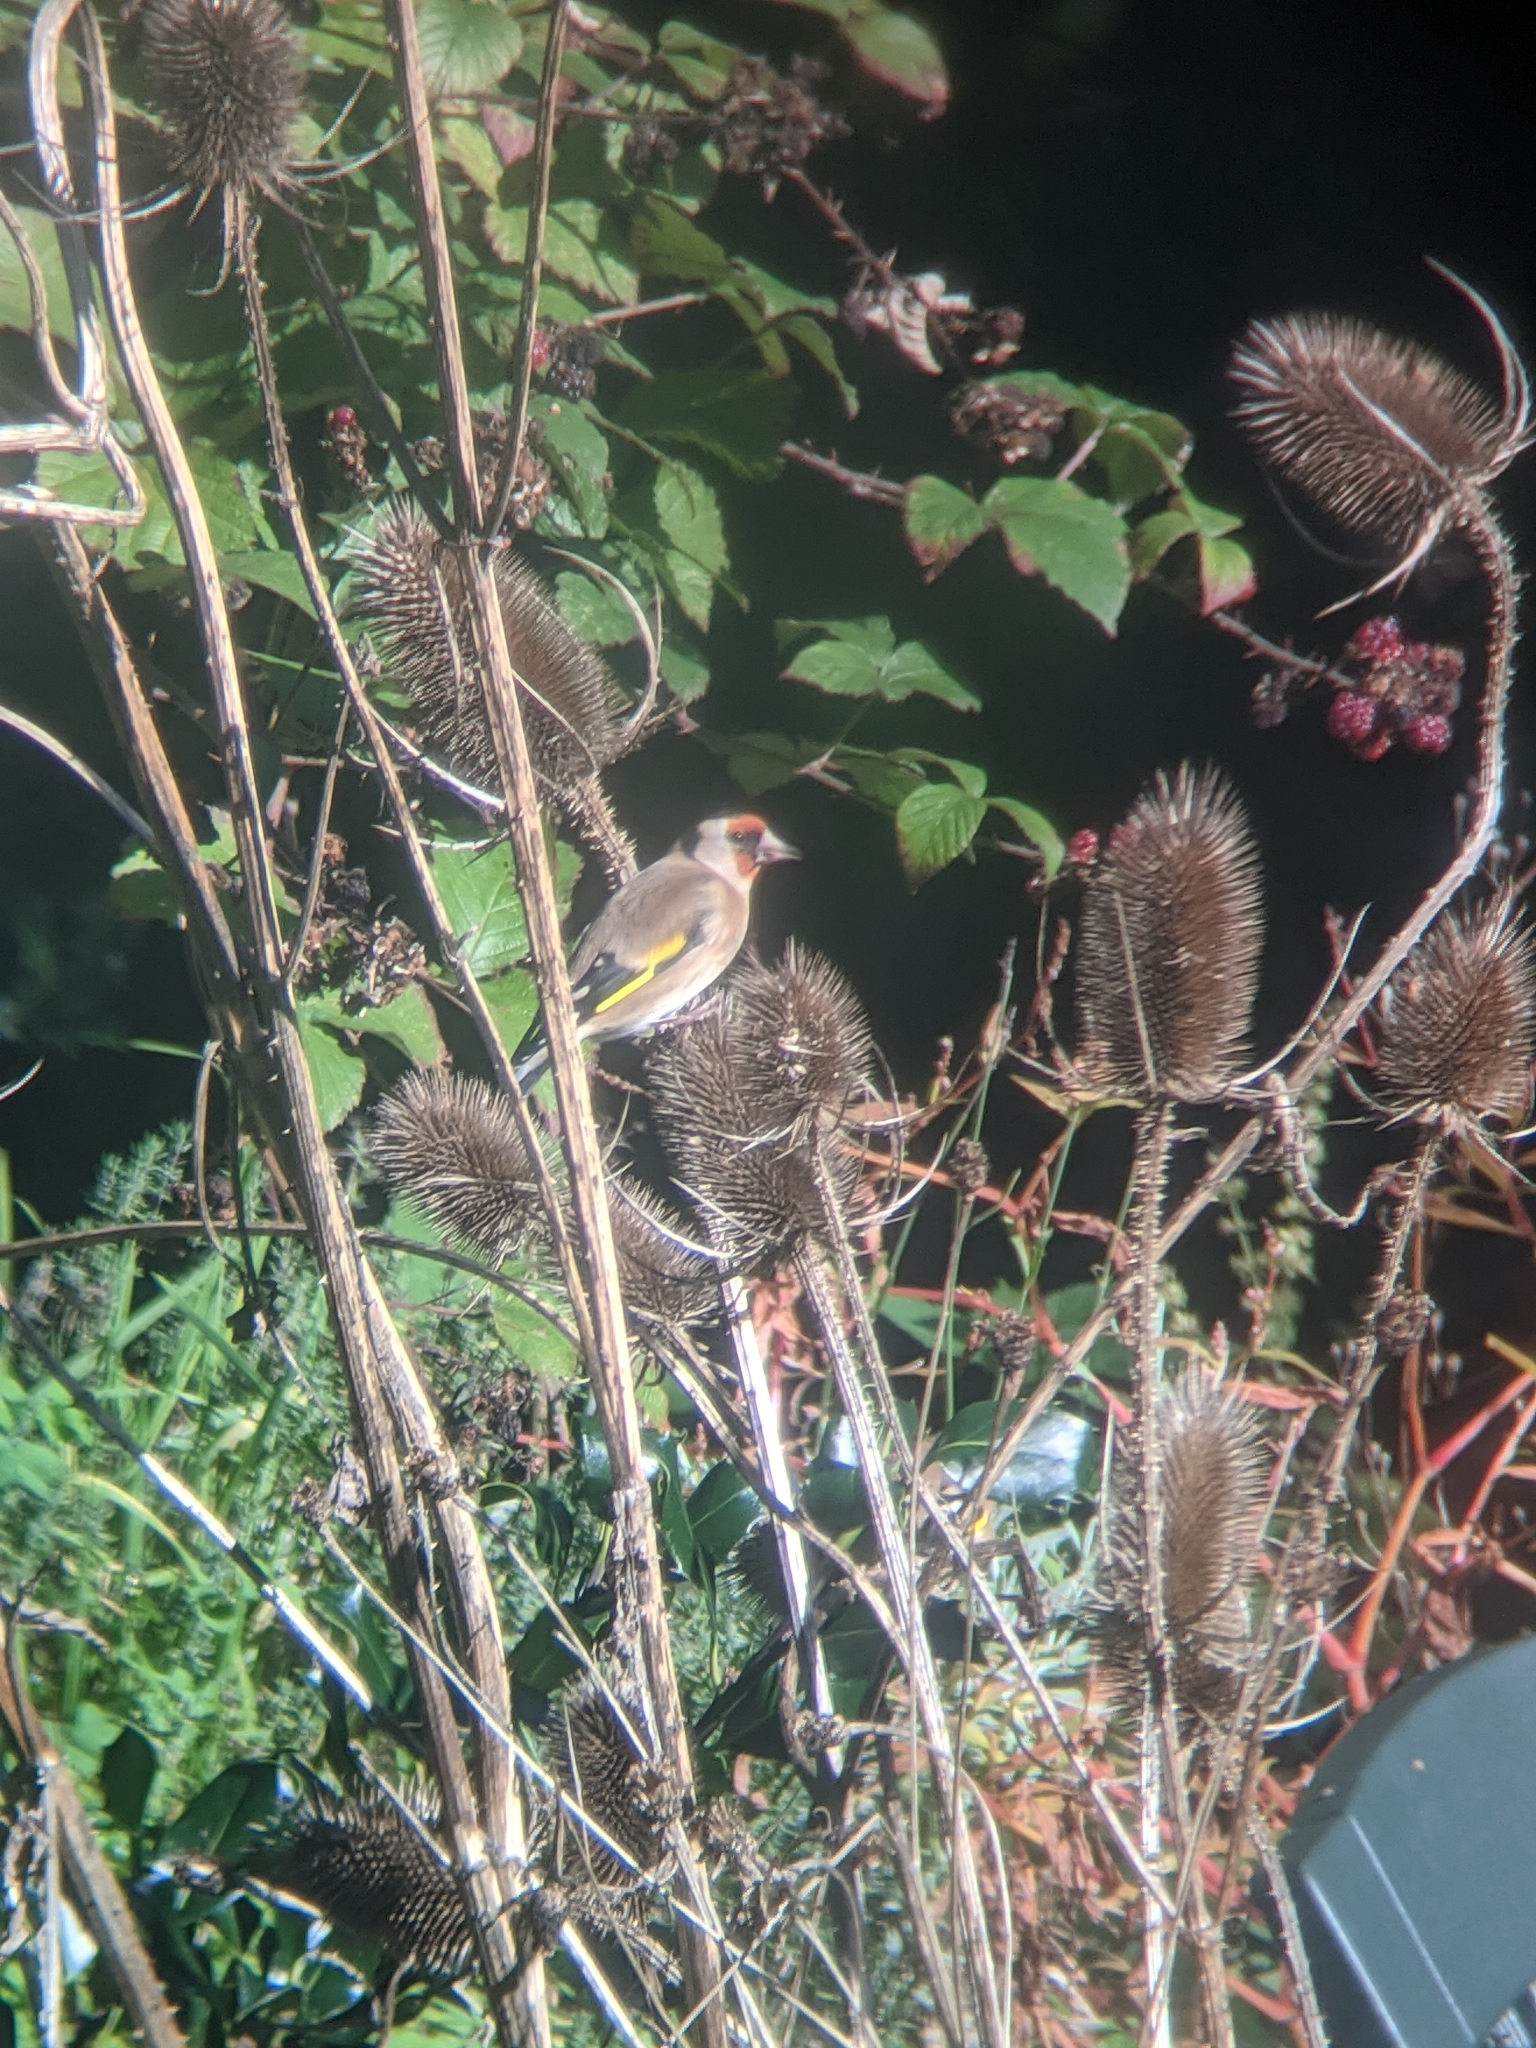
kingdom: Animalia
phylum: Chordata
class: Aves
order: Passeriformes
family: Fringillidae
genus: Carduelis
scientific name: Carduelis carduelis
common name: European goldfinch
